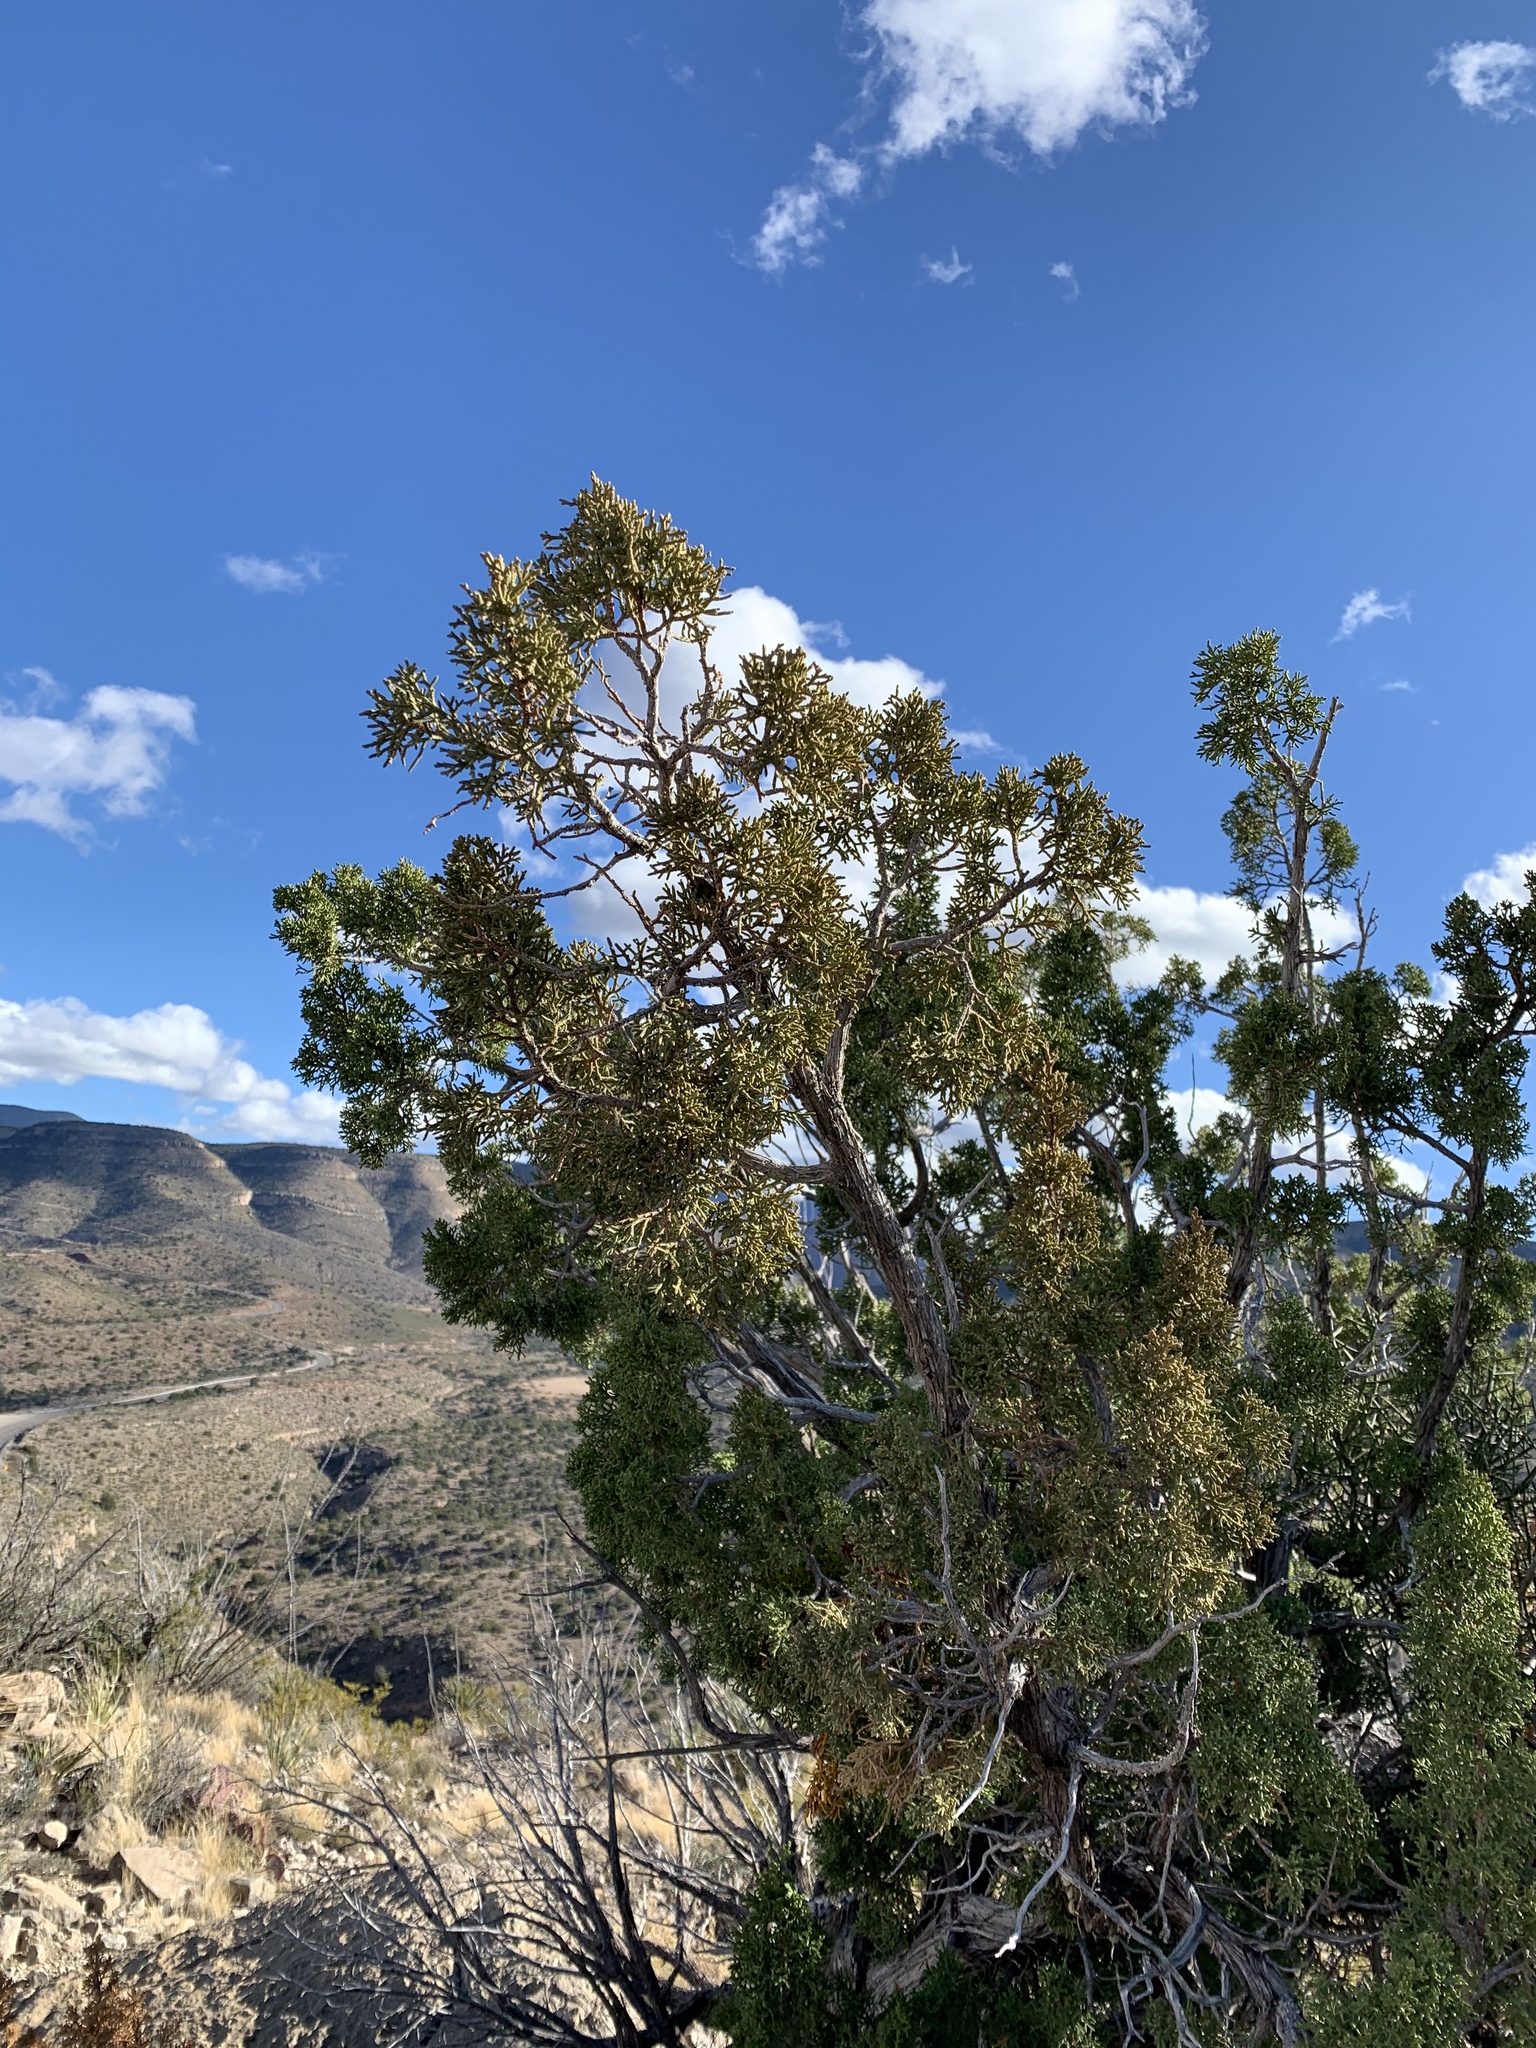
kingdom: Plantae
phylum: Tracheophyta
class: Pinopsida
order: Pinales
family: Cupressaceae
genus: Juniperus
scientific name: Juniperus monosperma
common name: One-seed juniper
